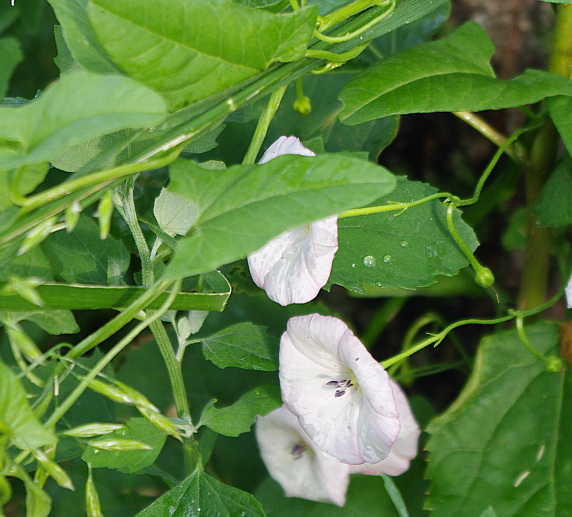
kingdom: Plantae
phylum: Tracheophyta
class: Magnoliopsida
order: Solanales
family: Convolvulaceae
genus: Convolvulus
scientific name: Convolvulus arvensis
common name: Field bindweed
